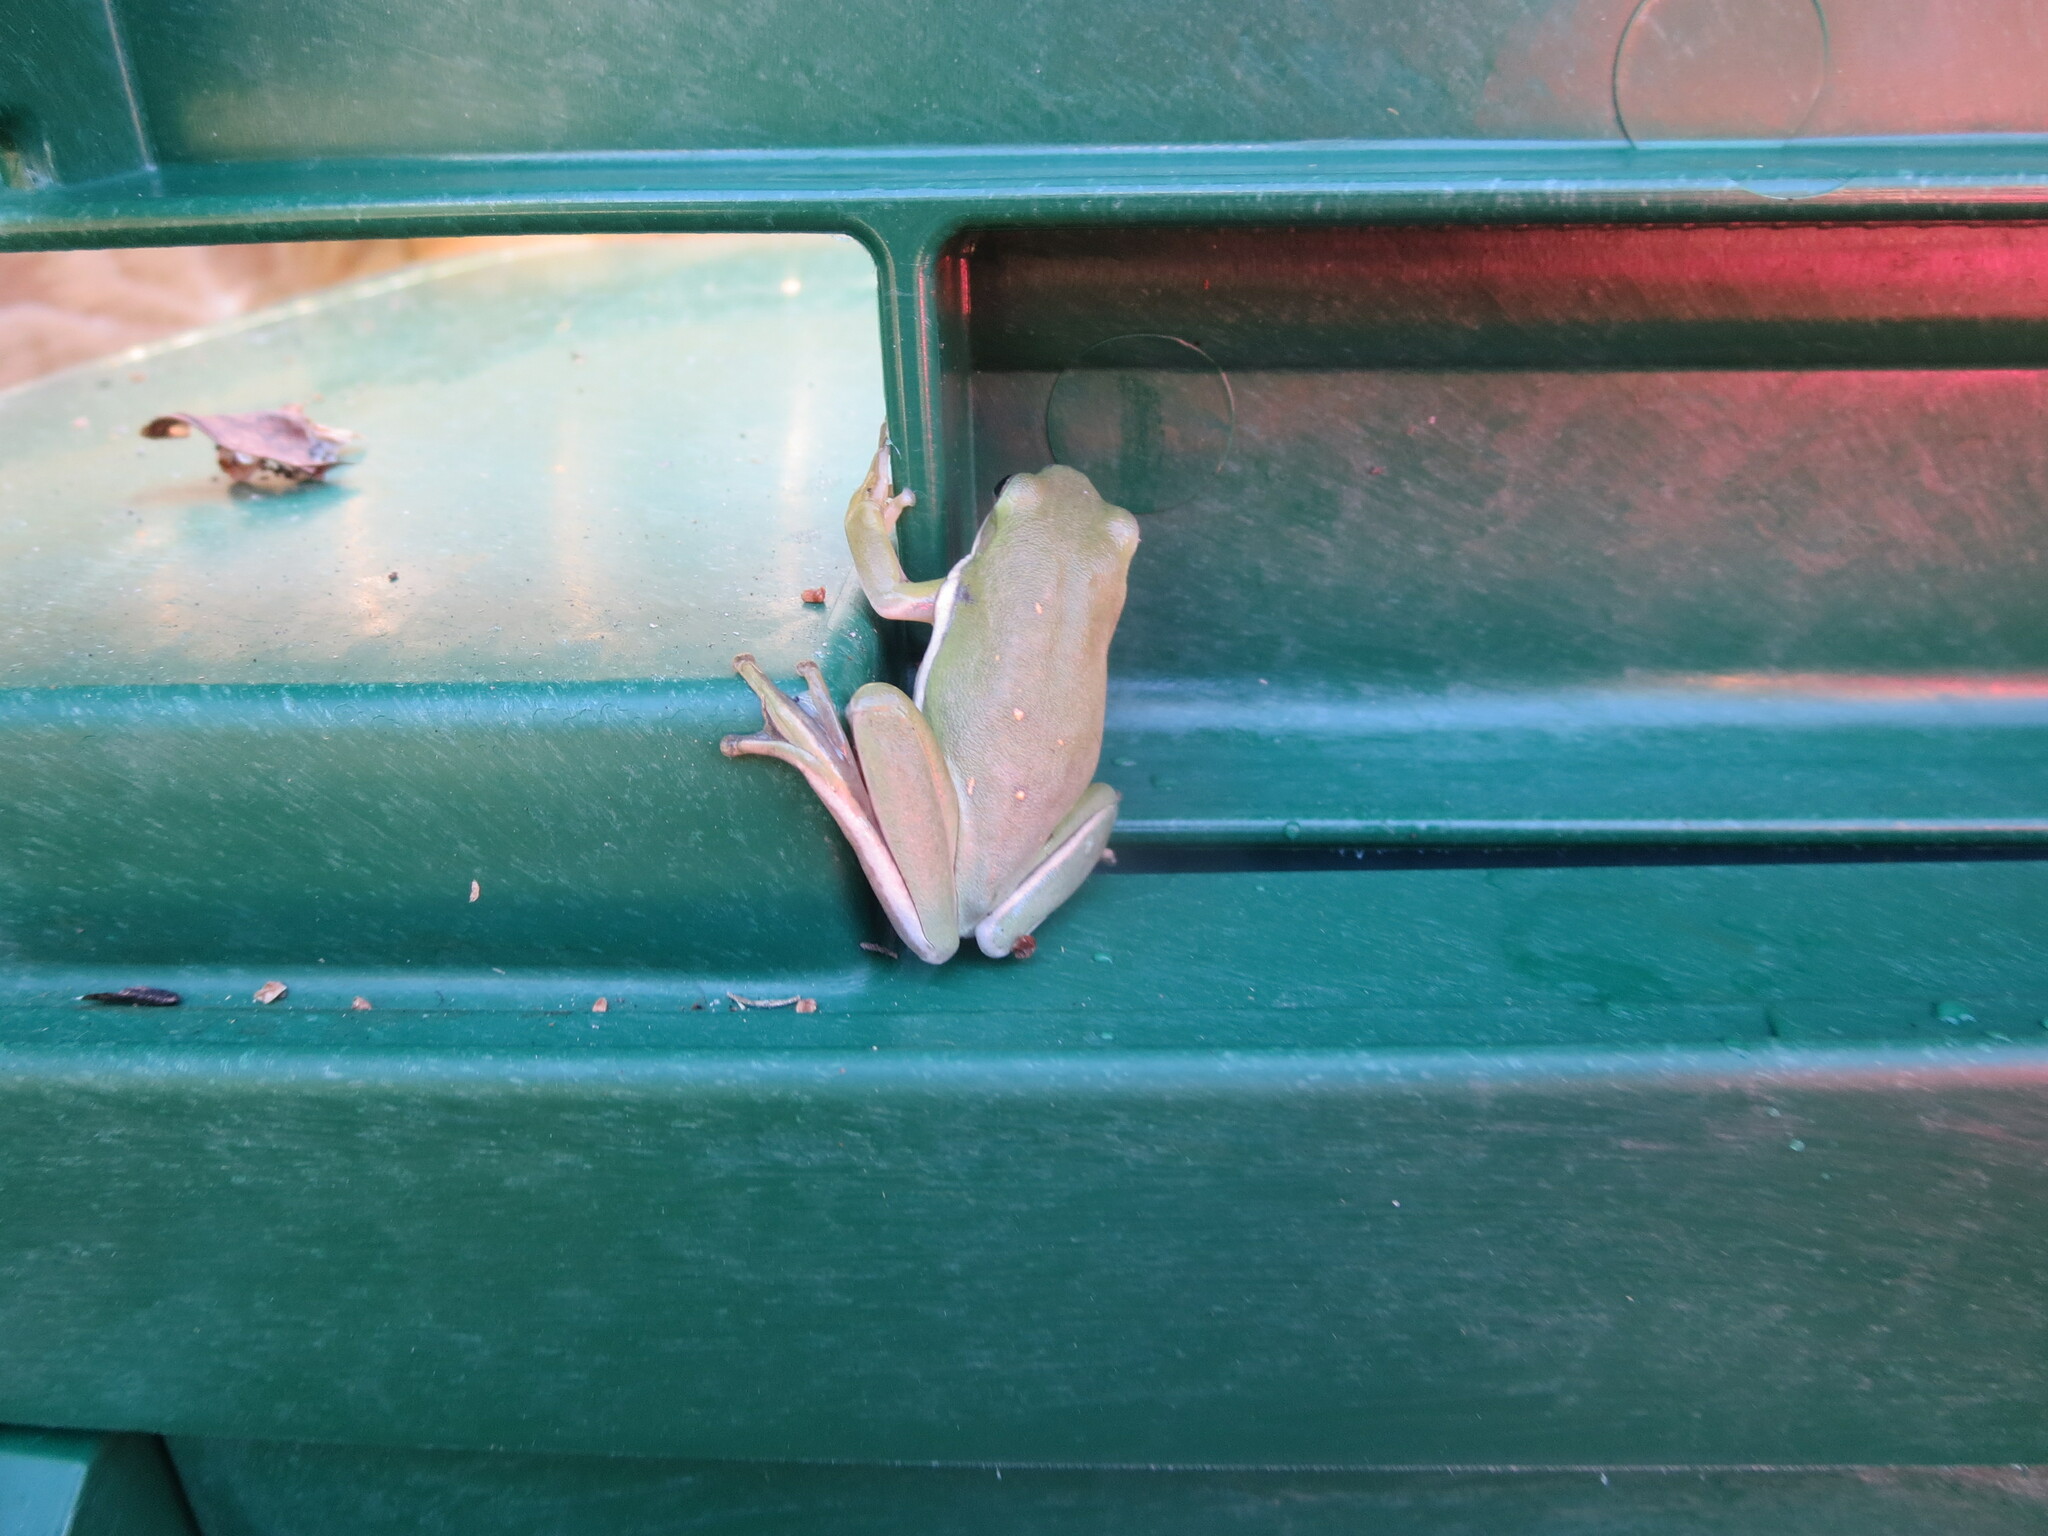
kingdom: Animalia
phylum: Chordata
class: Amphibia
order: Anura
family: Hylidae
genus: Dryophytes
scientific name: Dryophytes cinereus
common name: Green treefrog
